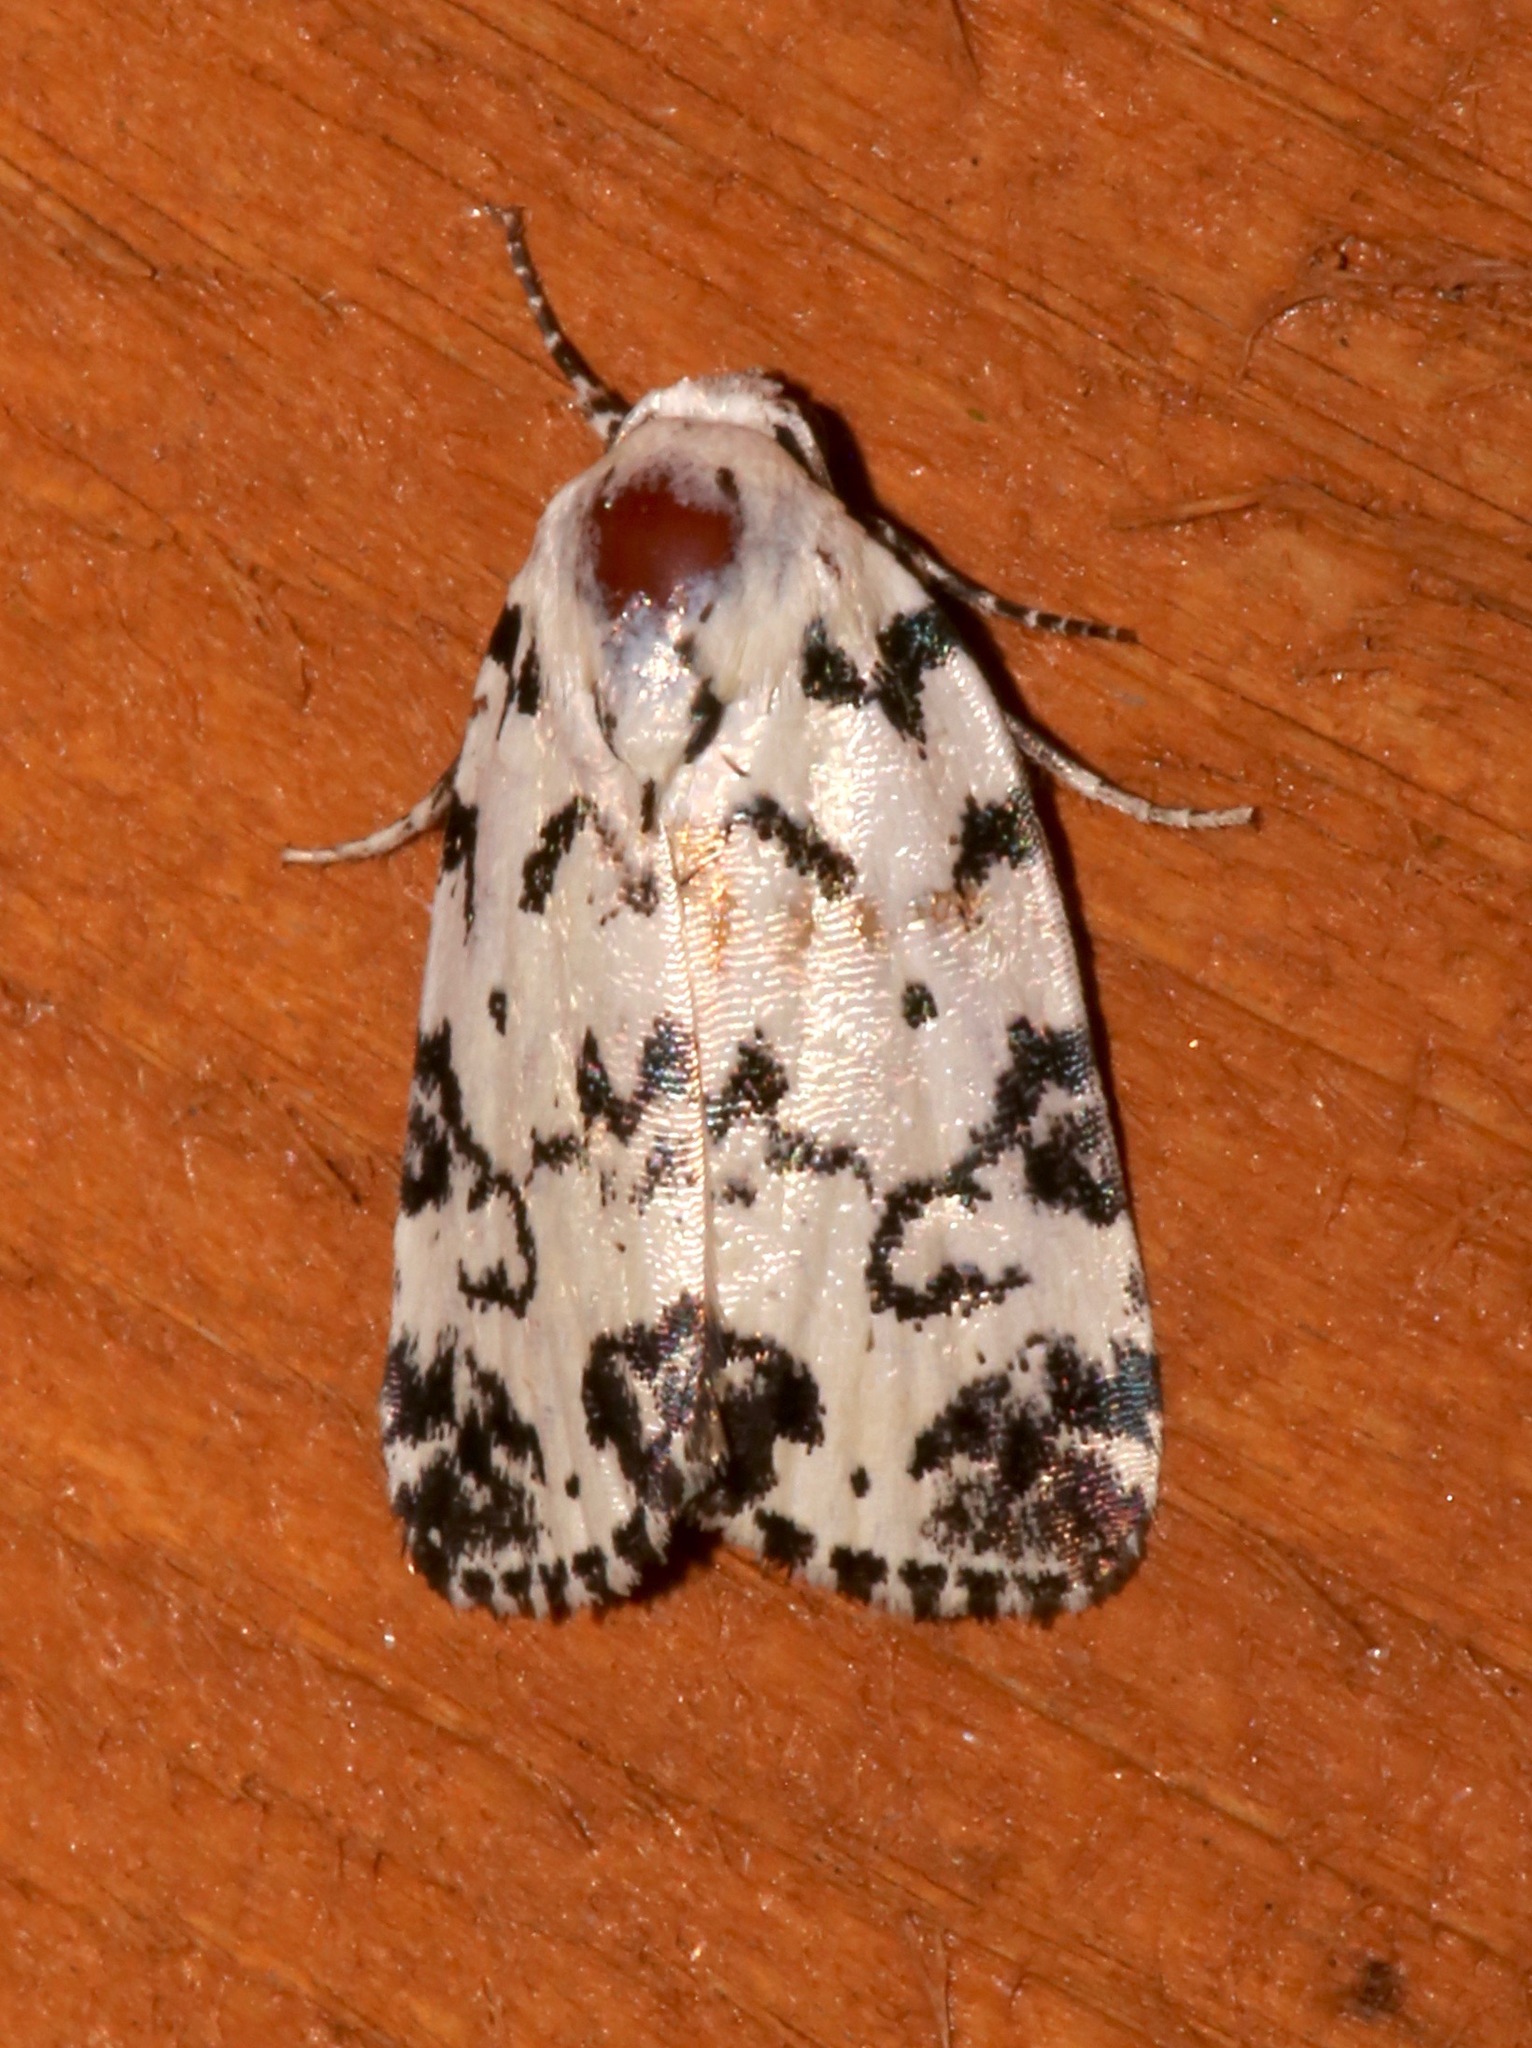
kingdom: Animalia
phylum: Arthropoda
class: Insecta
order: Lepidoptera
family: Noctuidae
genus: Polygrammate
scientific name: Polygrammate hebraeicum
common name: Hebrew moth
